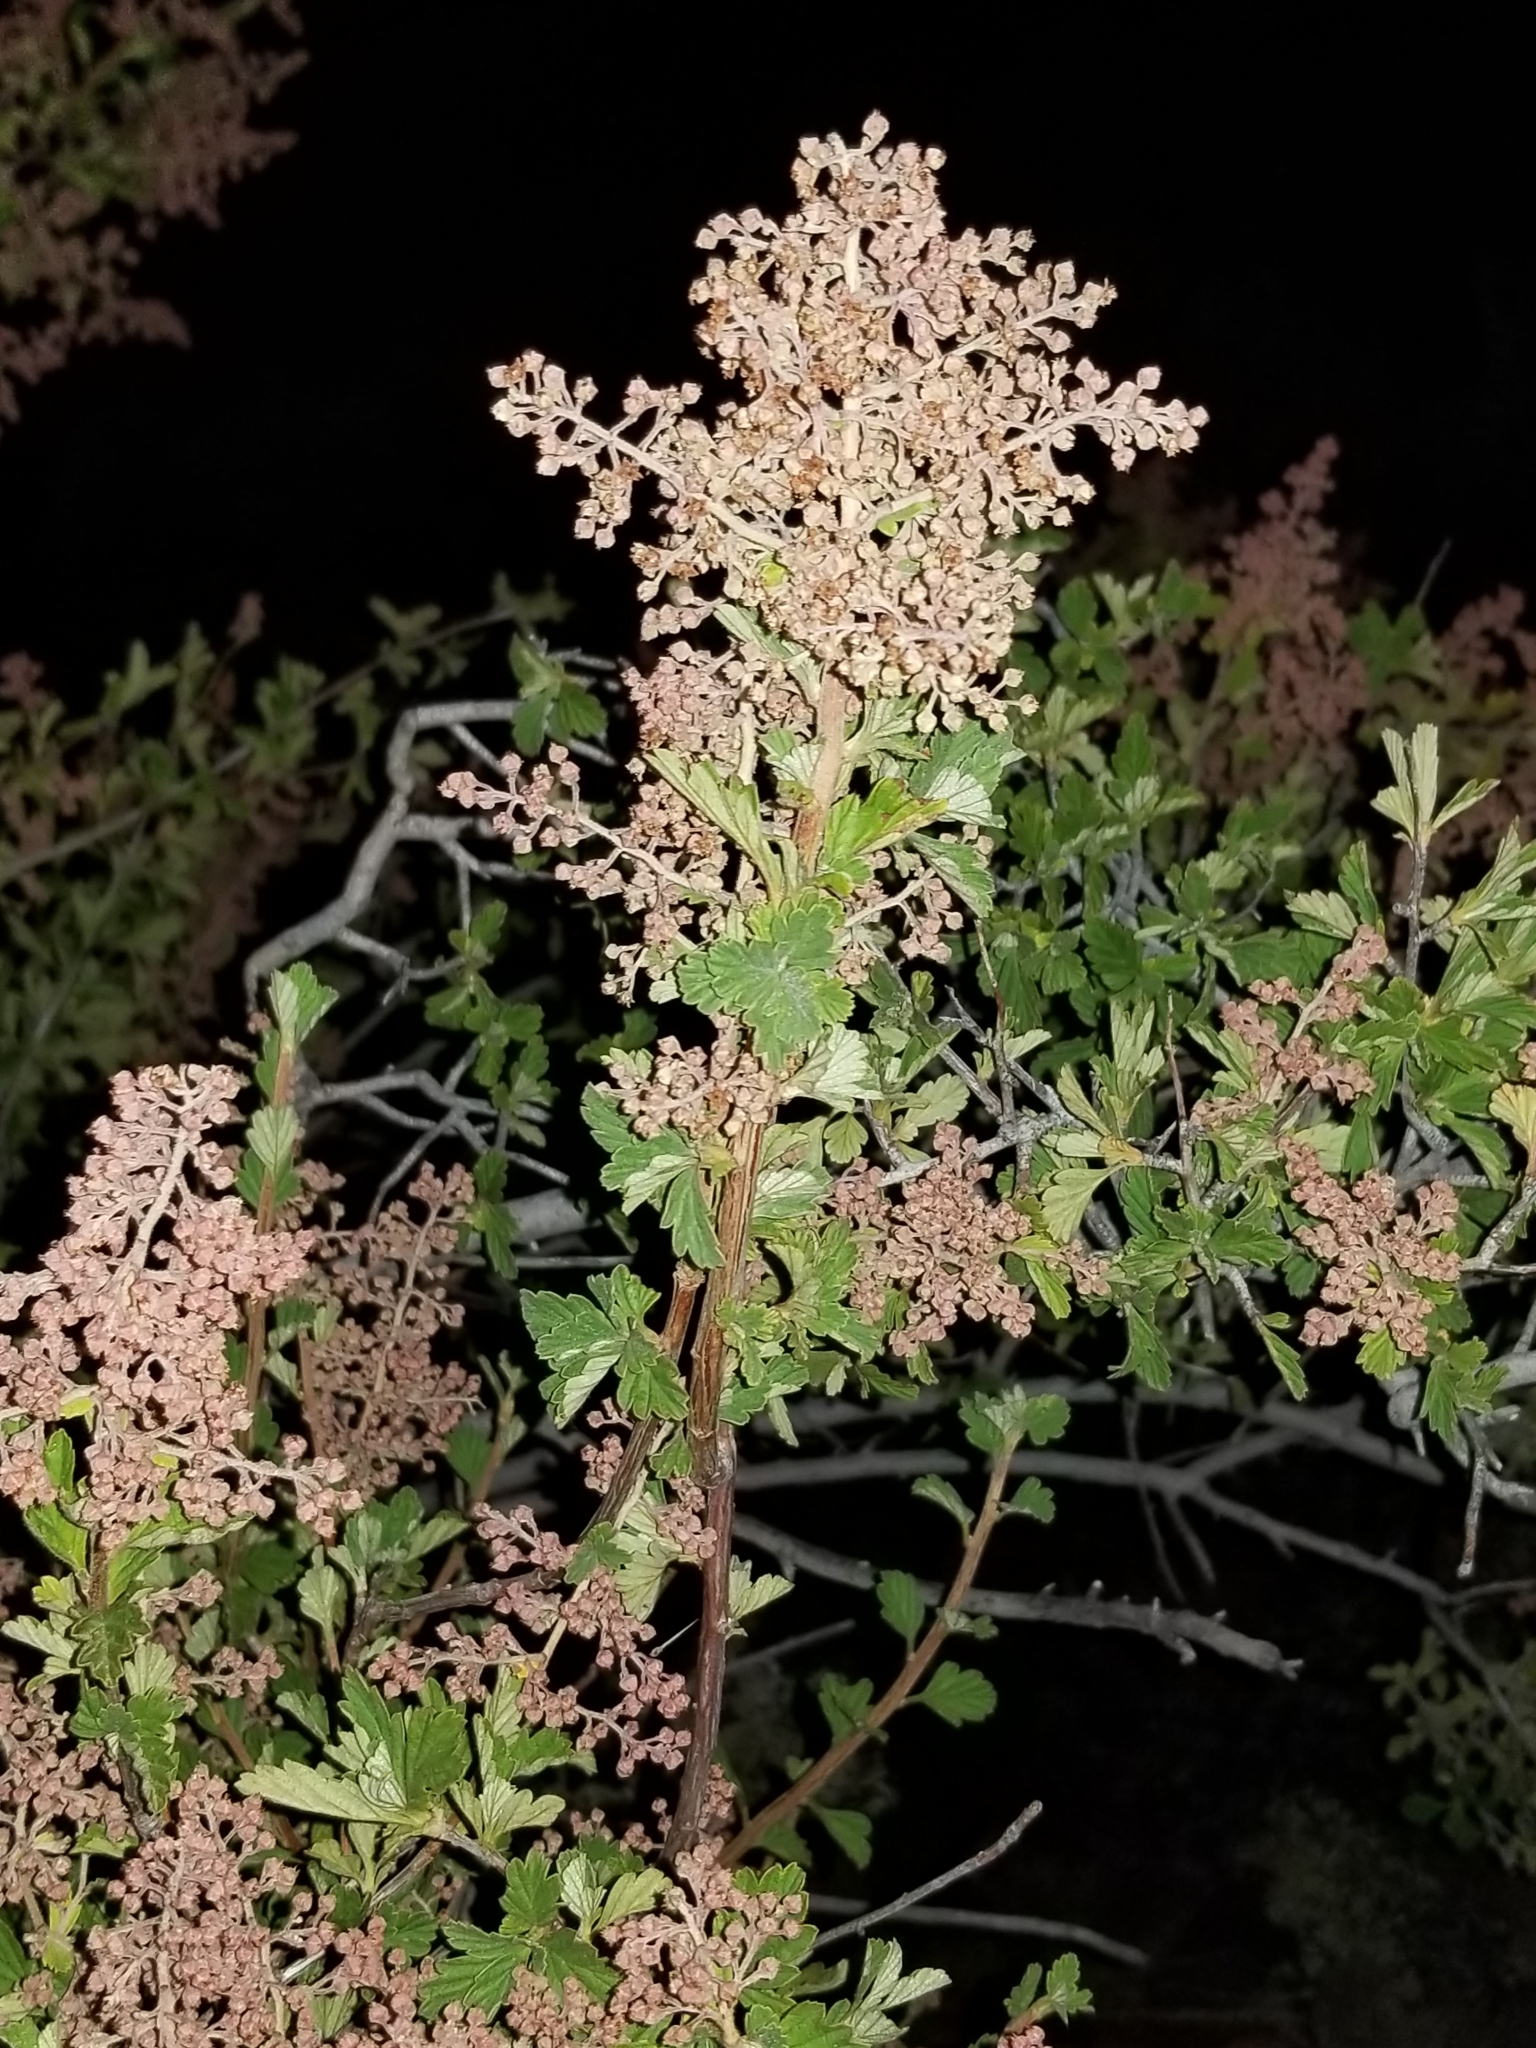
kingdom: Plantae
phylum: Tracheophyta
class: Magnoliopsida
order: Rosales
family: Rosaceae
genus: Holodiscus
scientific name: Holodiscus discolor
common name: Oceanspray
